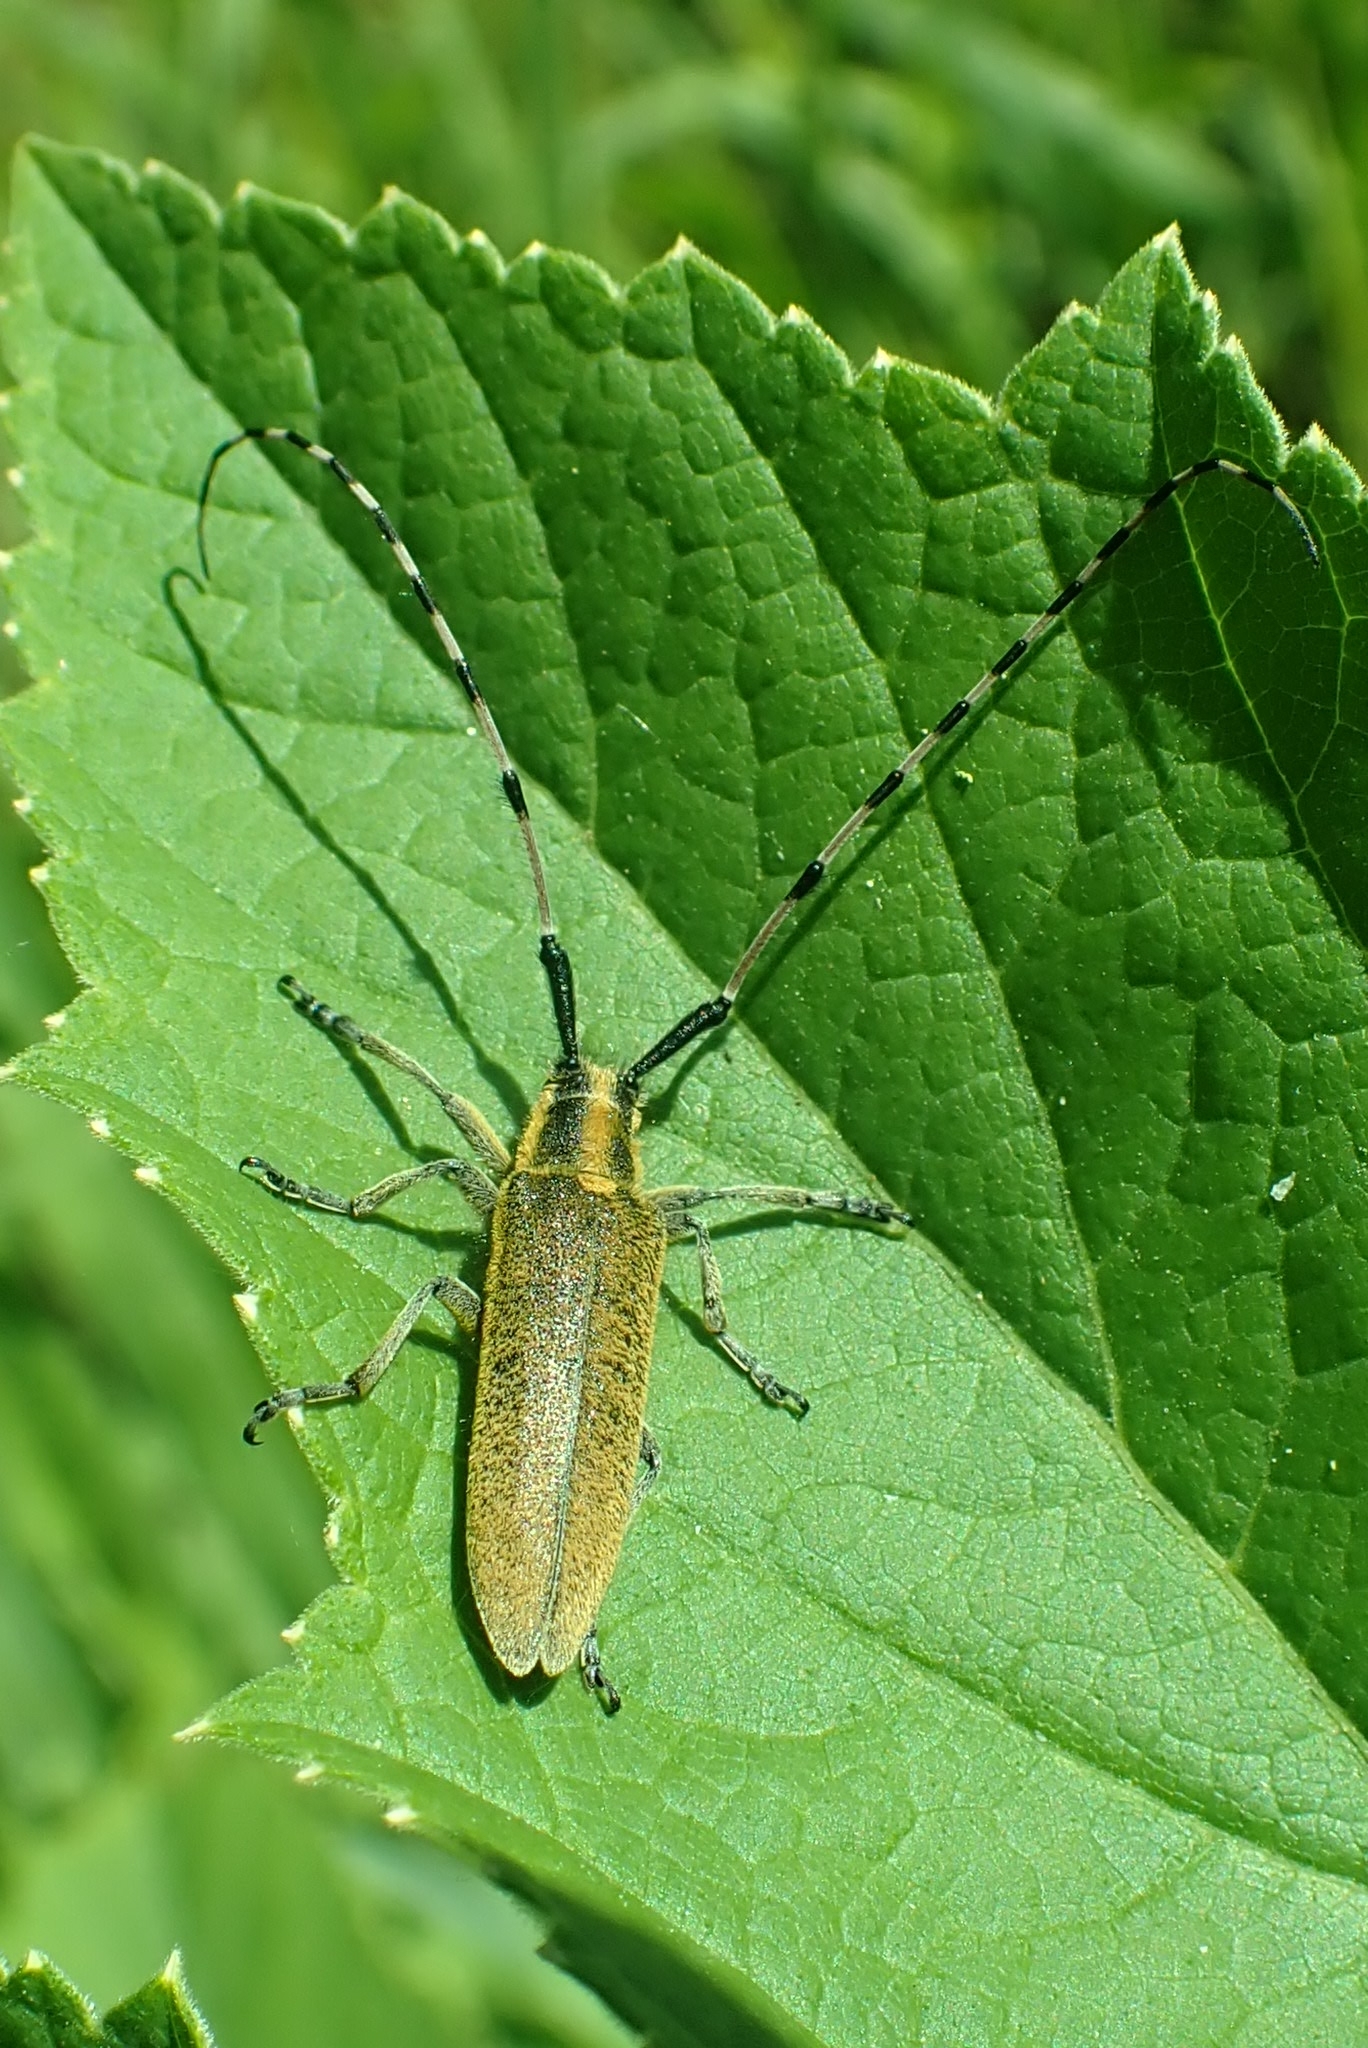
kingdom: Animalia
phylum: Arthropoda
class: Insecta
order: Coleoptera
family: Cerambycidae
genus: Agapanthia
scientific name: Agapanthia villosoviridescens
